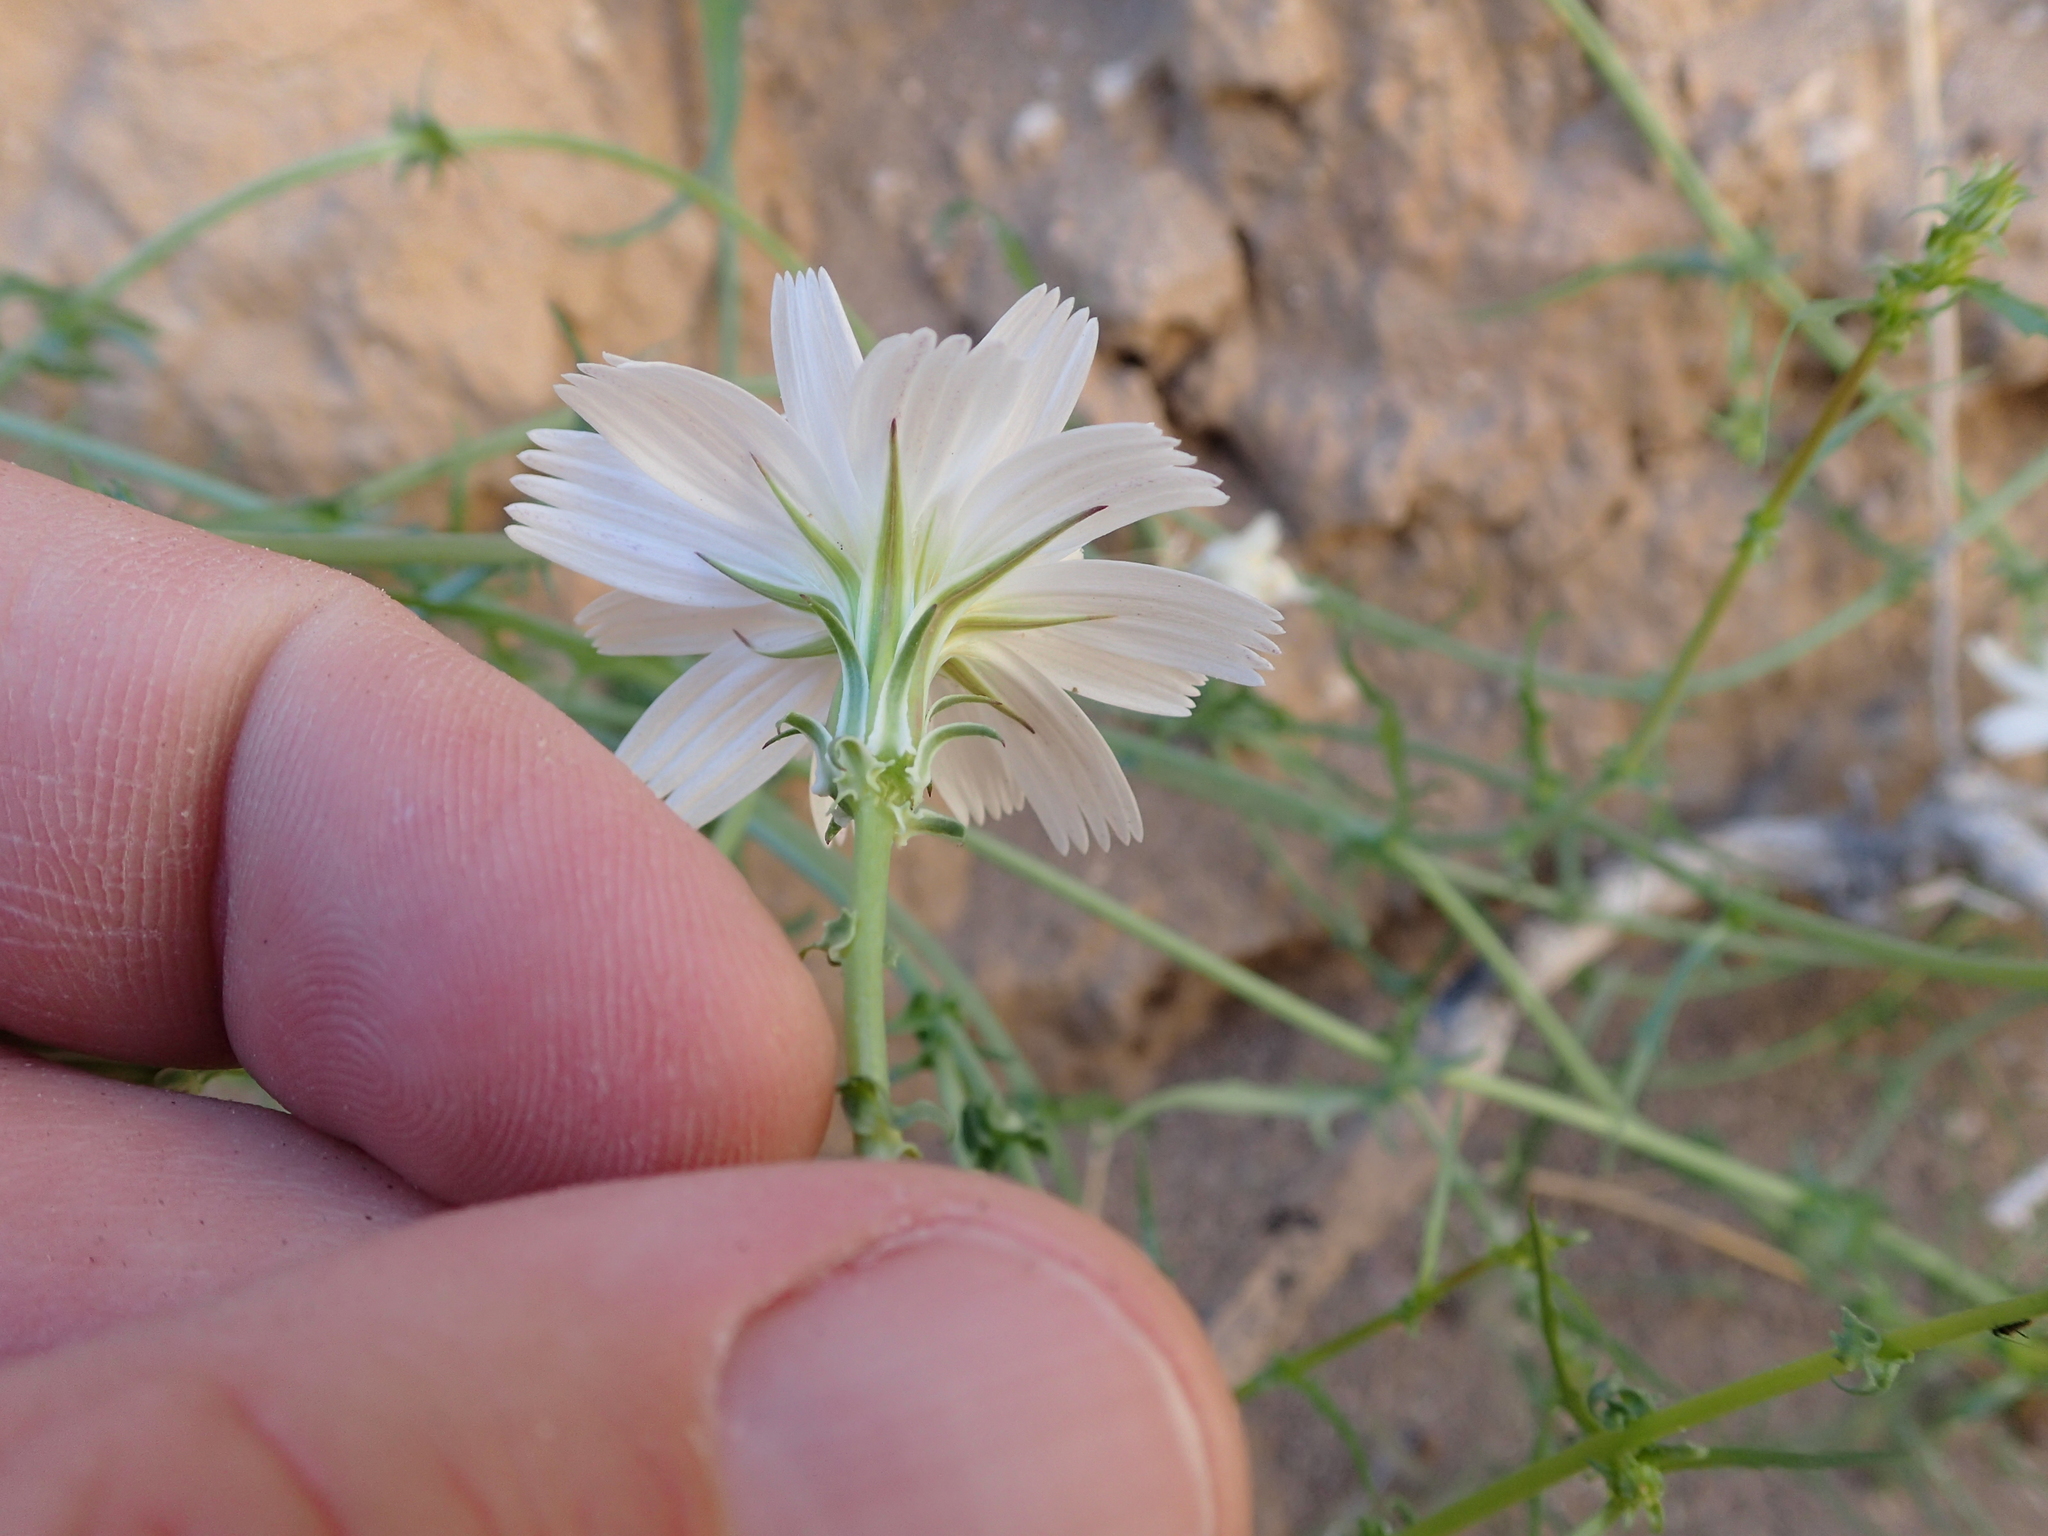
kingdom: Plantae
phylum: Tracheophyta
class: Magnoliopsida
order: Asterales
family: Asteraceae
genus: Rafinesquia
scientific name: Rafinesquia neomexicana
